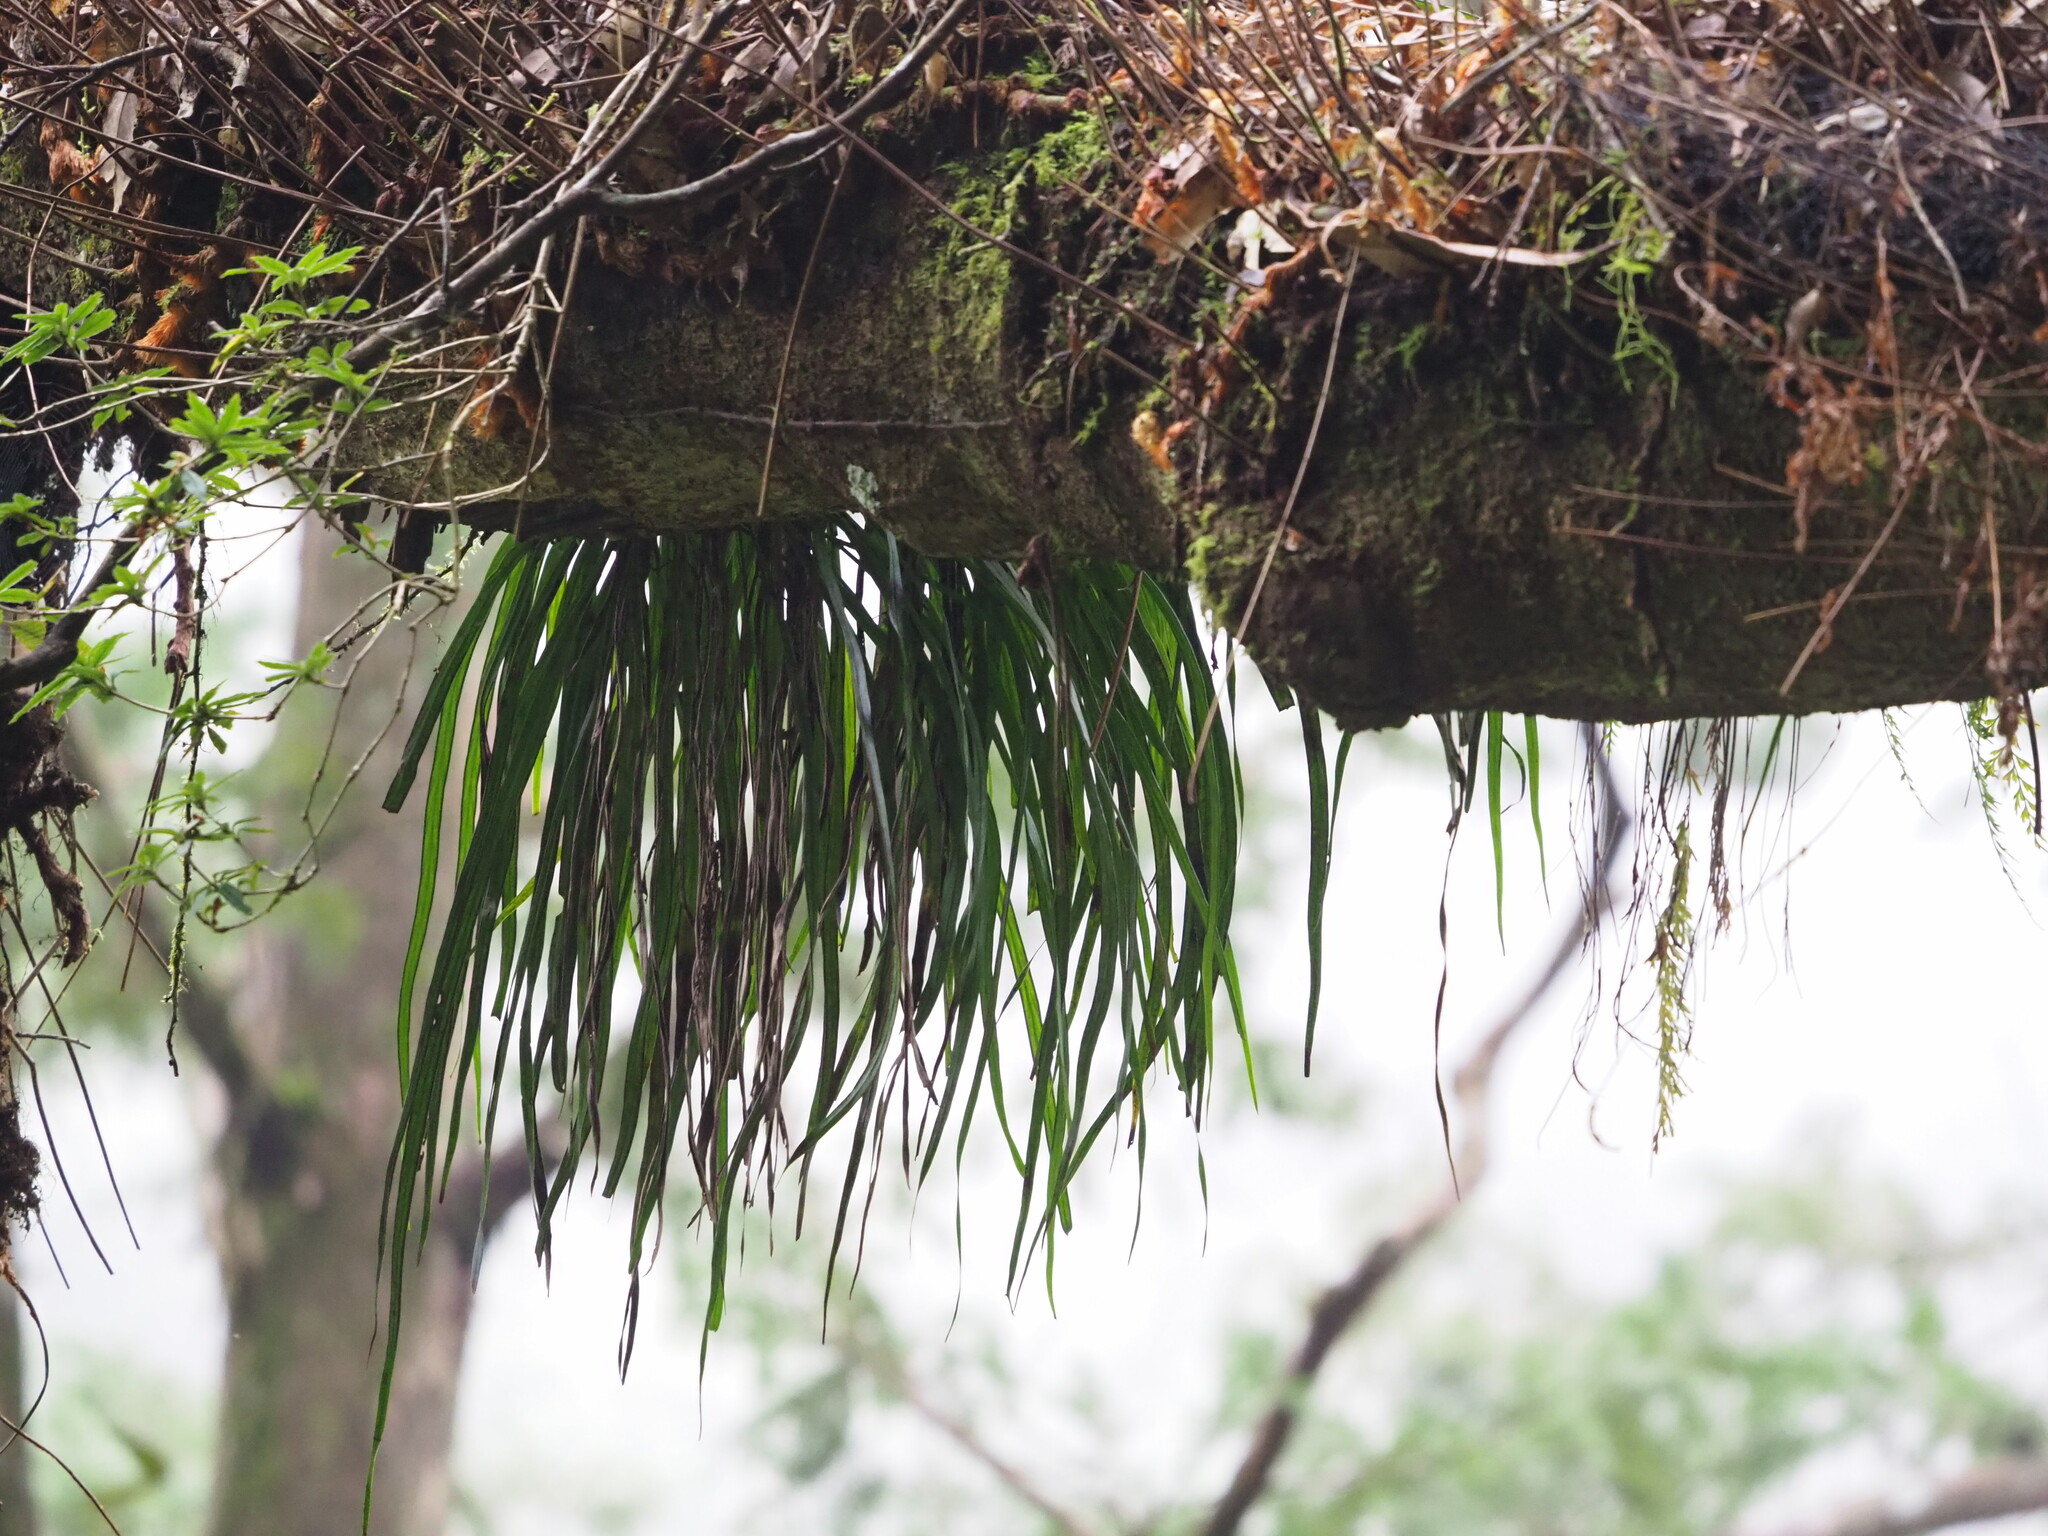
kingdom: Plantae
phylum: Tracheophyta
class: Polypodiopsida
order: Polypodiales
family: Pteridaceae
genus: Haplopteris
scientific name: Haplopteris elongata
